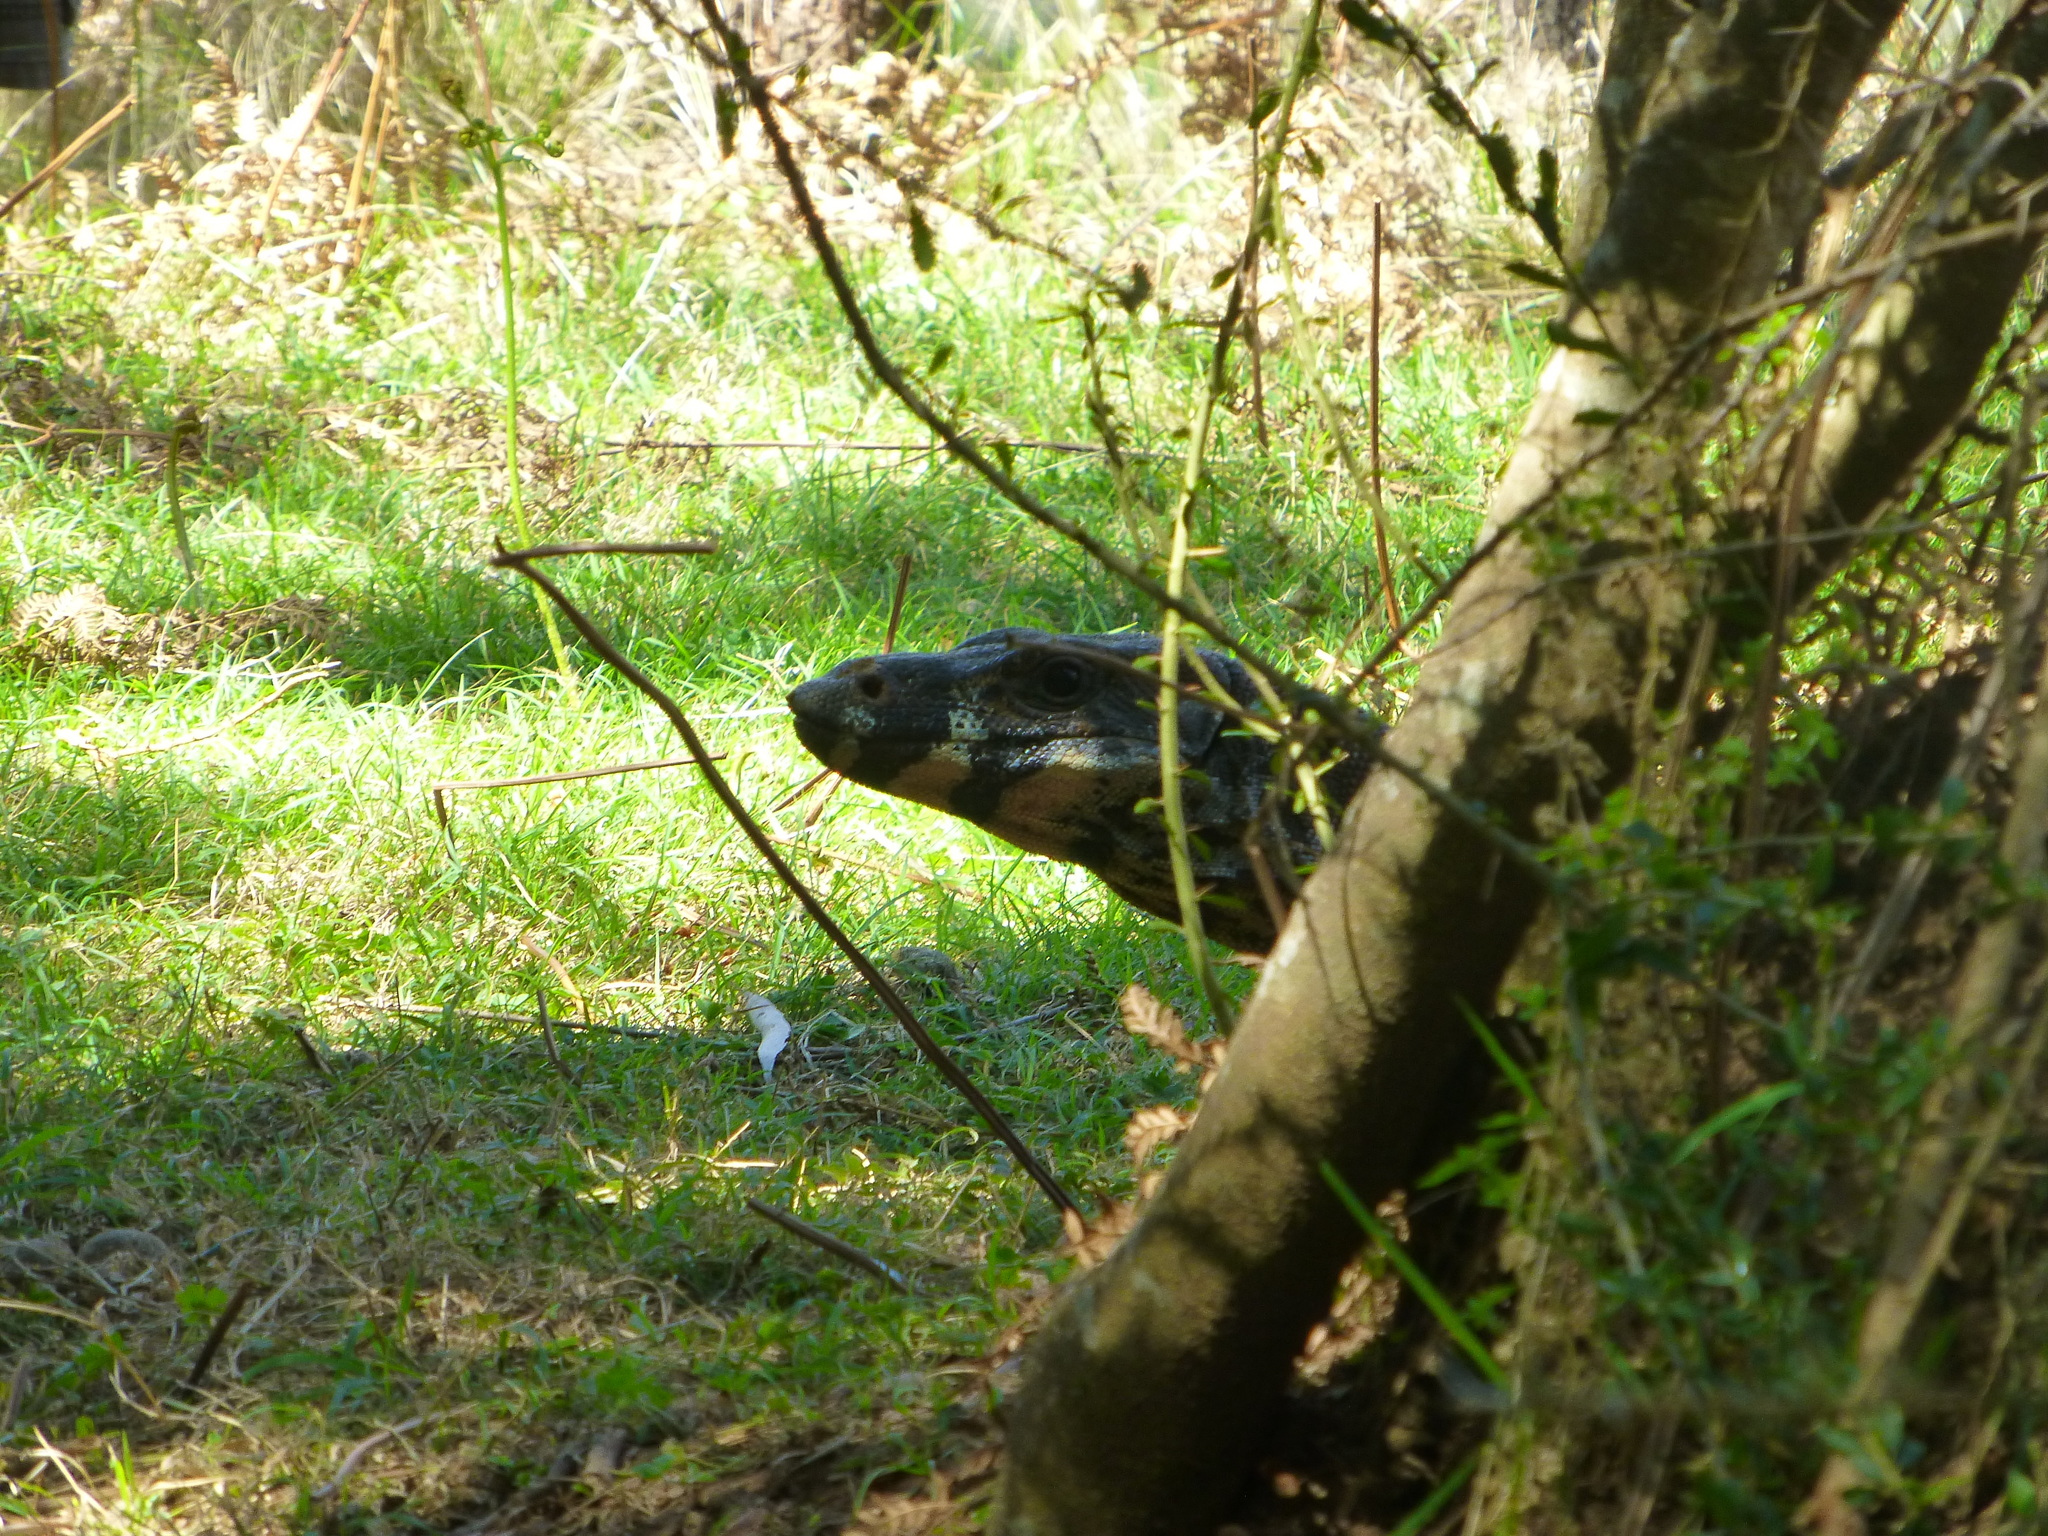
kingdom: Animalia
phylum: Chordata
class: Squamata
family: Varanidae
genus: Varanus
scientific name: Varanus varius
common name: Lace monitor
